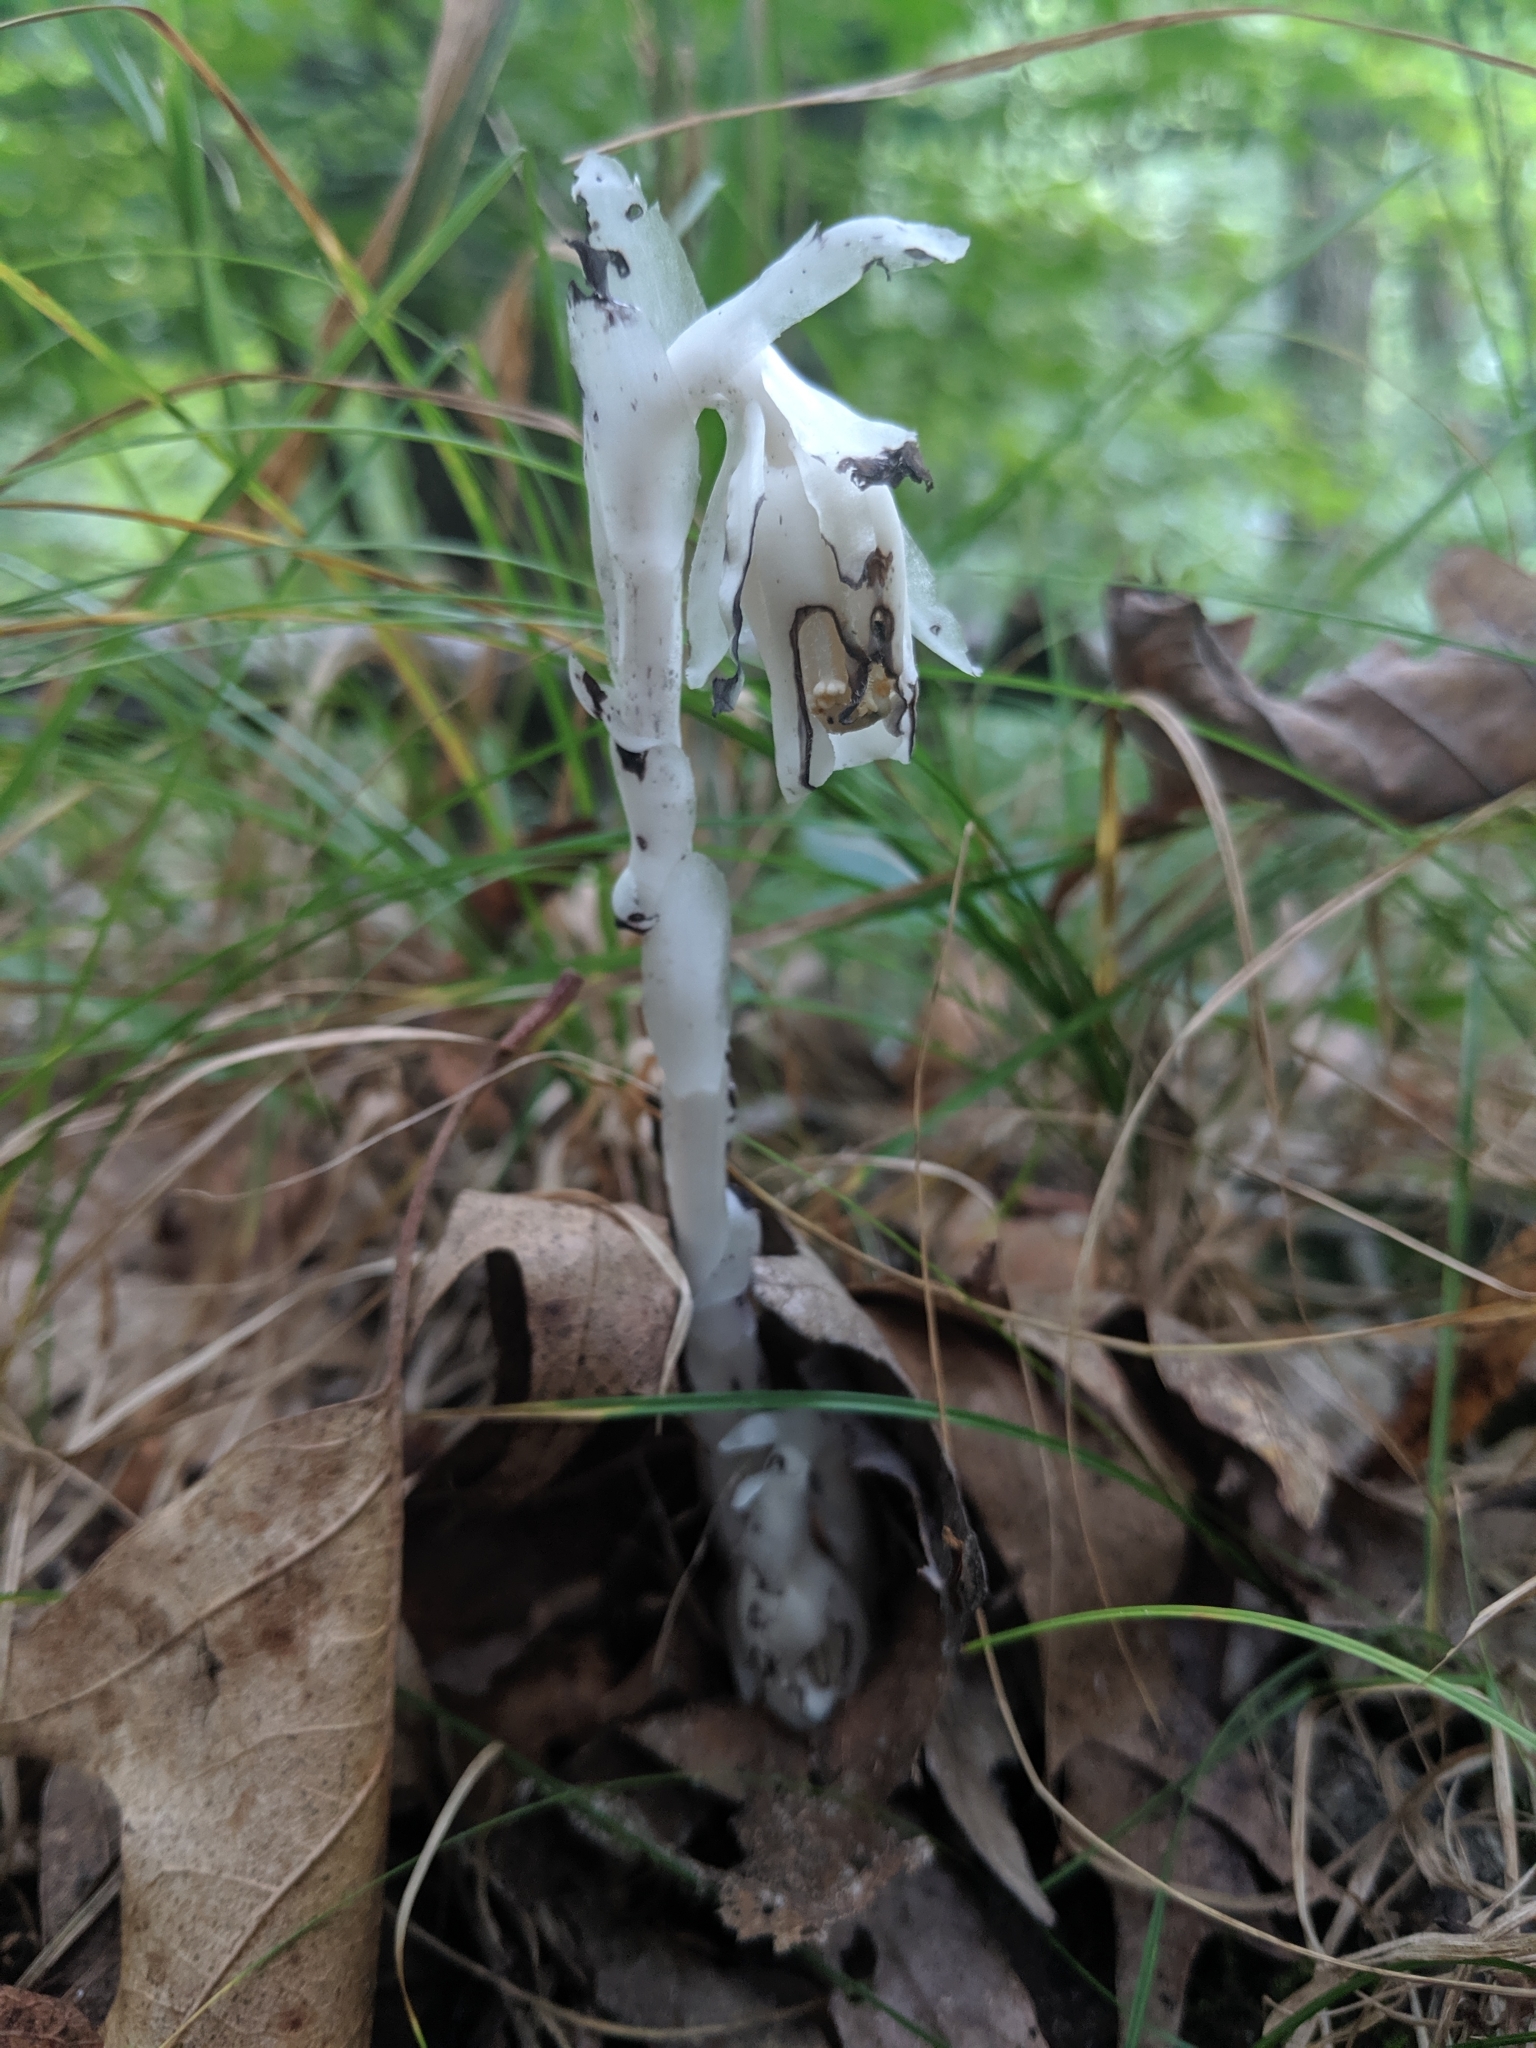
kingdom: Plantae
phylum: Tracheophyta
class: Magnoliopsida
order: Ericales
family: Ericaceae
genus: Monotropa
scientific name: Monotropa uniflora
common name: Convulsion root
